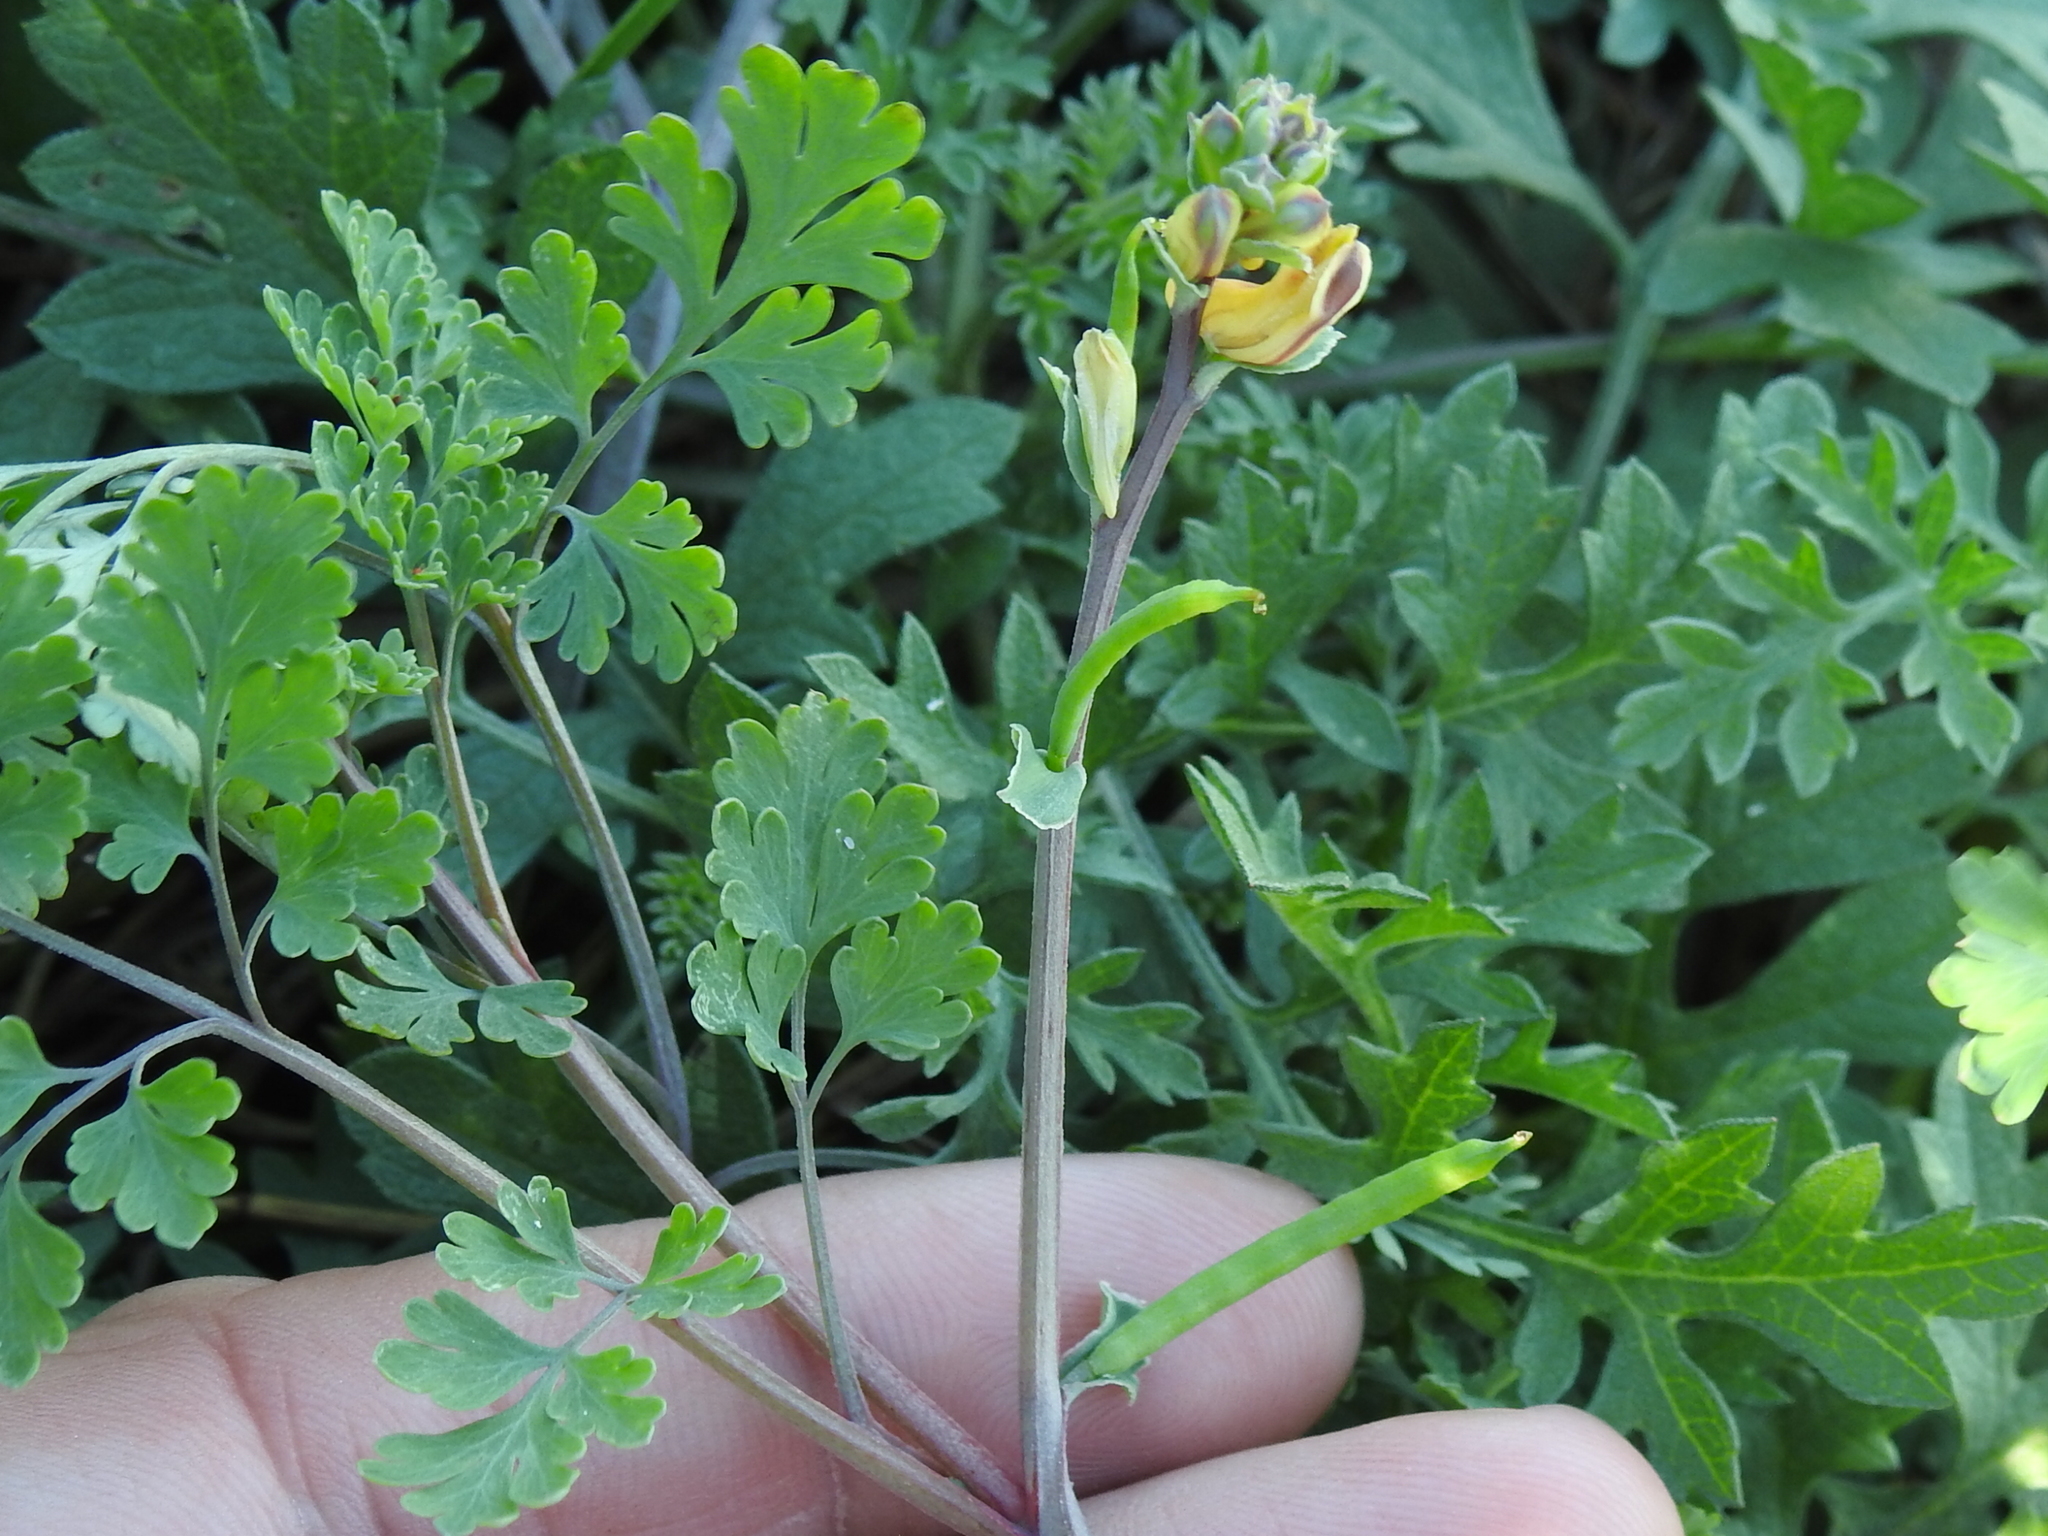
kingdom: Plantae
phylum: Tracheophyta
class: Magnoliopsida
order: Ranunculales
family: Papaveraceae
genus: Corydalis
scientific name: Corydalis micrantha
